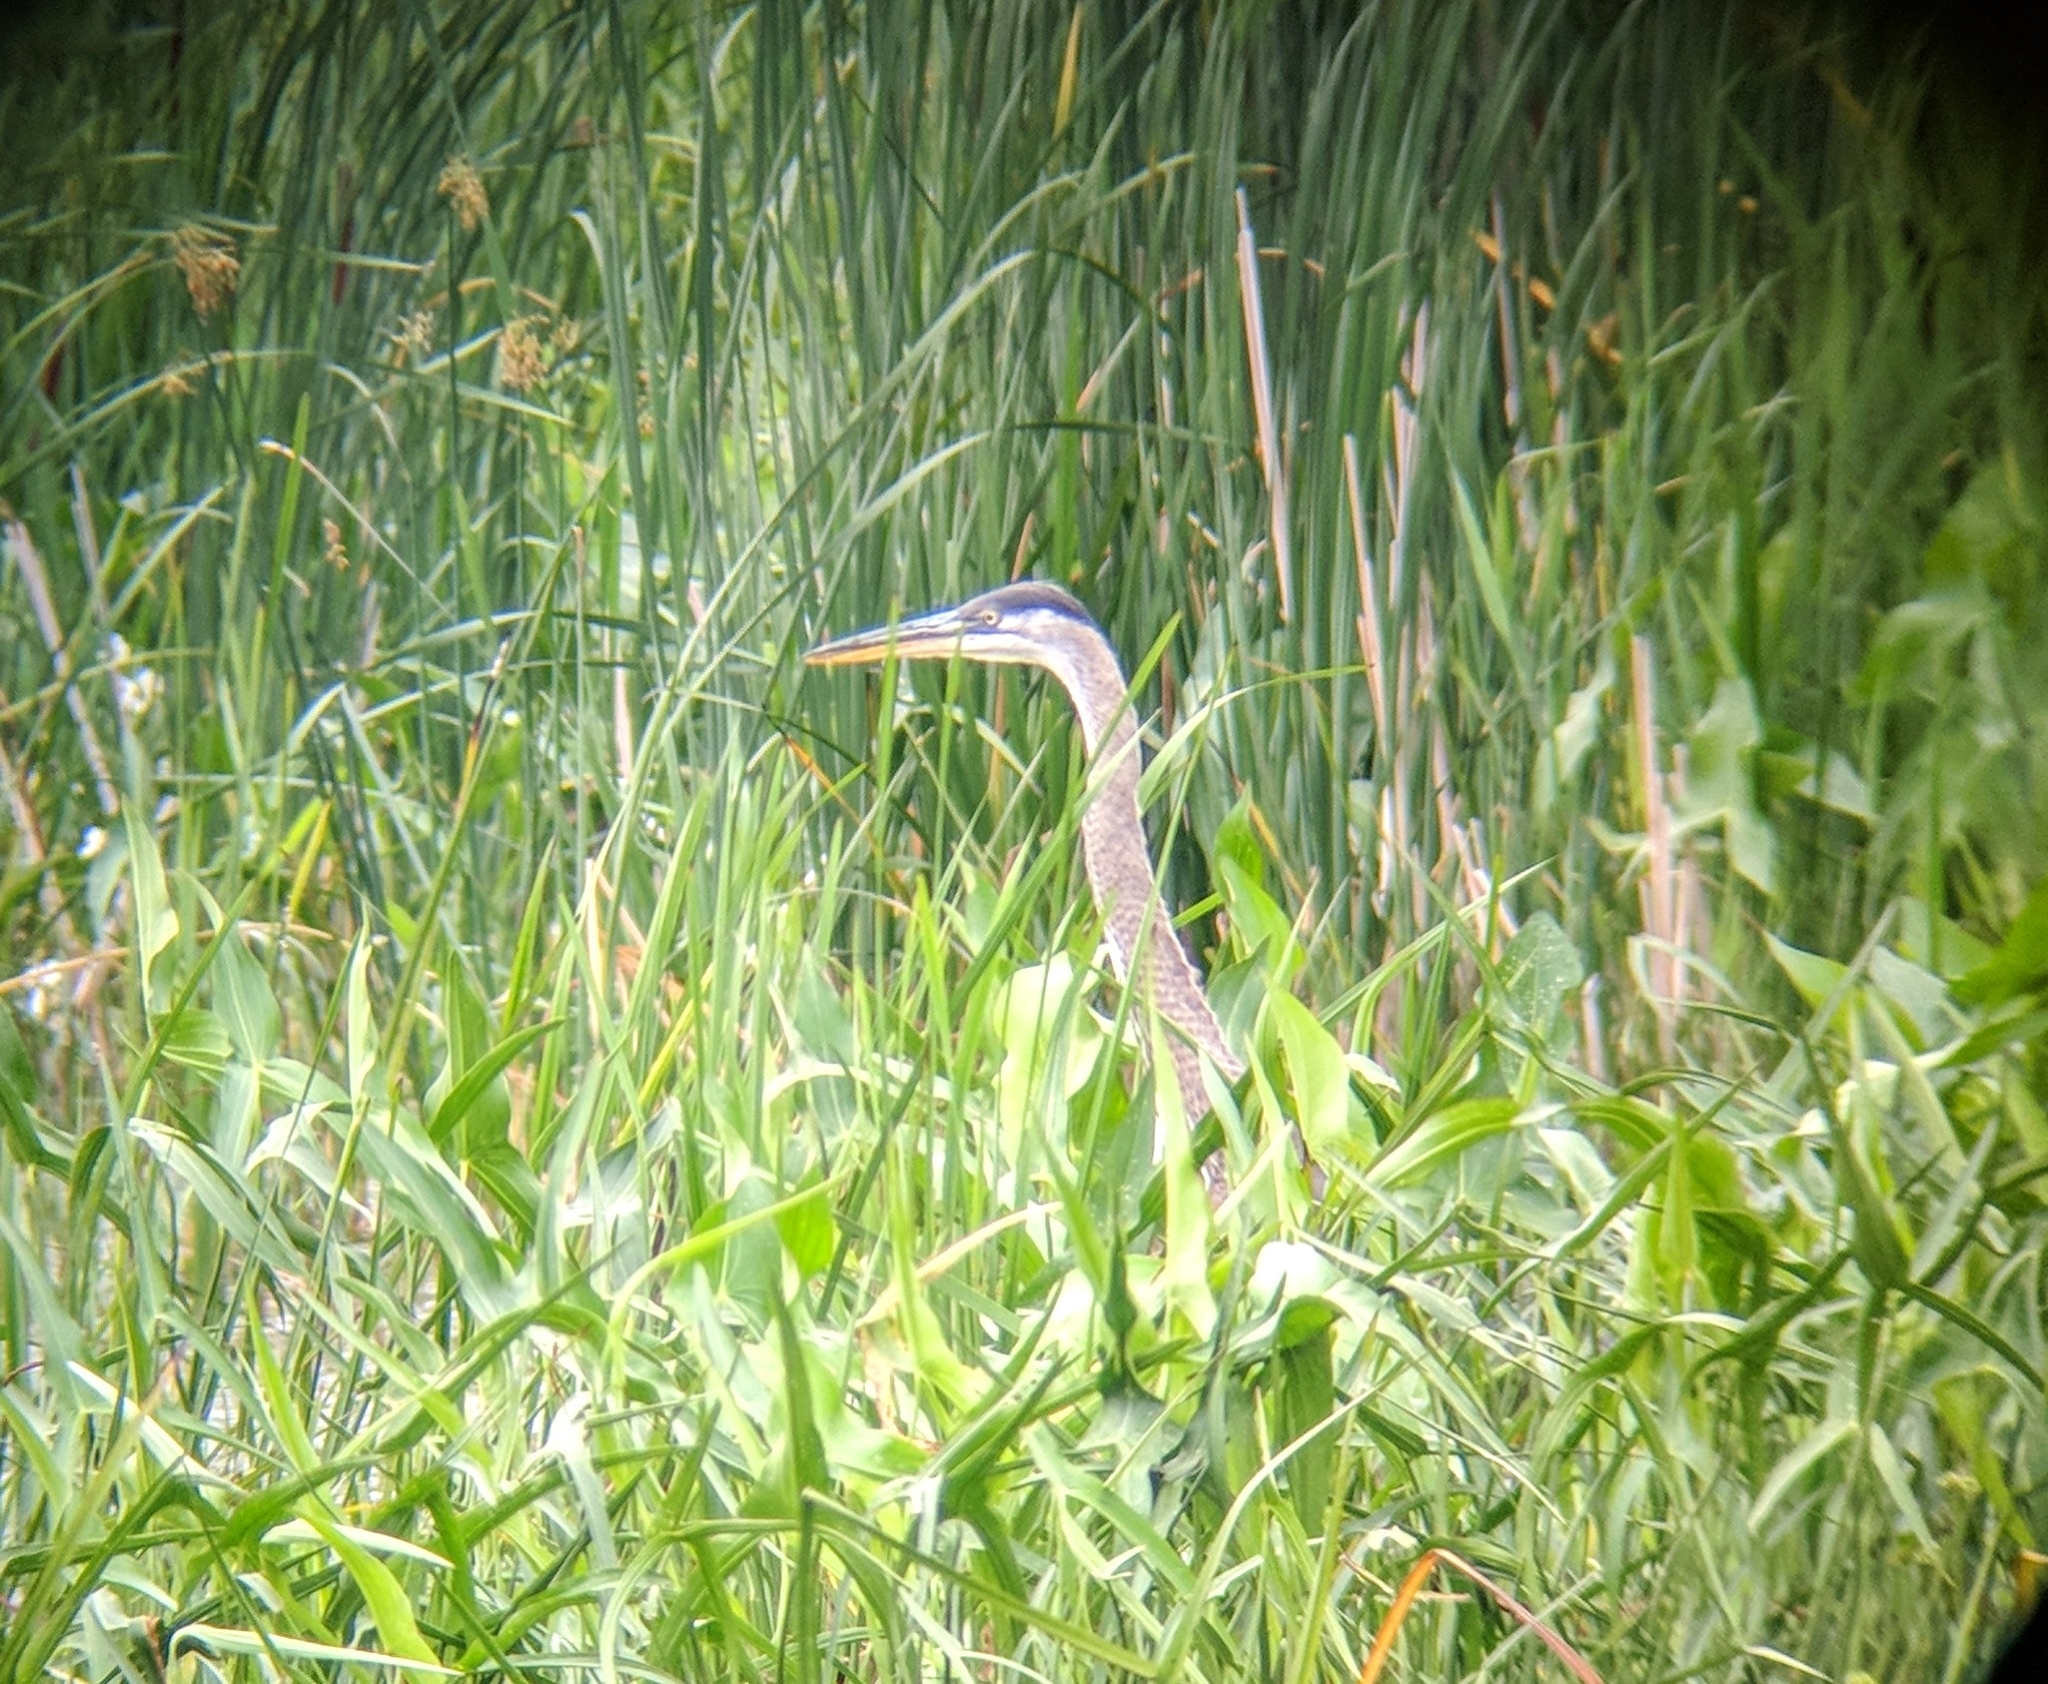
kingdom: Animalia
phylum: Chordata
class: Aves
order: Pelecaniformes
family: Ardeidae
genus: Ardea
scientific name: Ardea herodias
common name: Great blue heron
